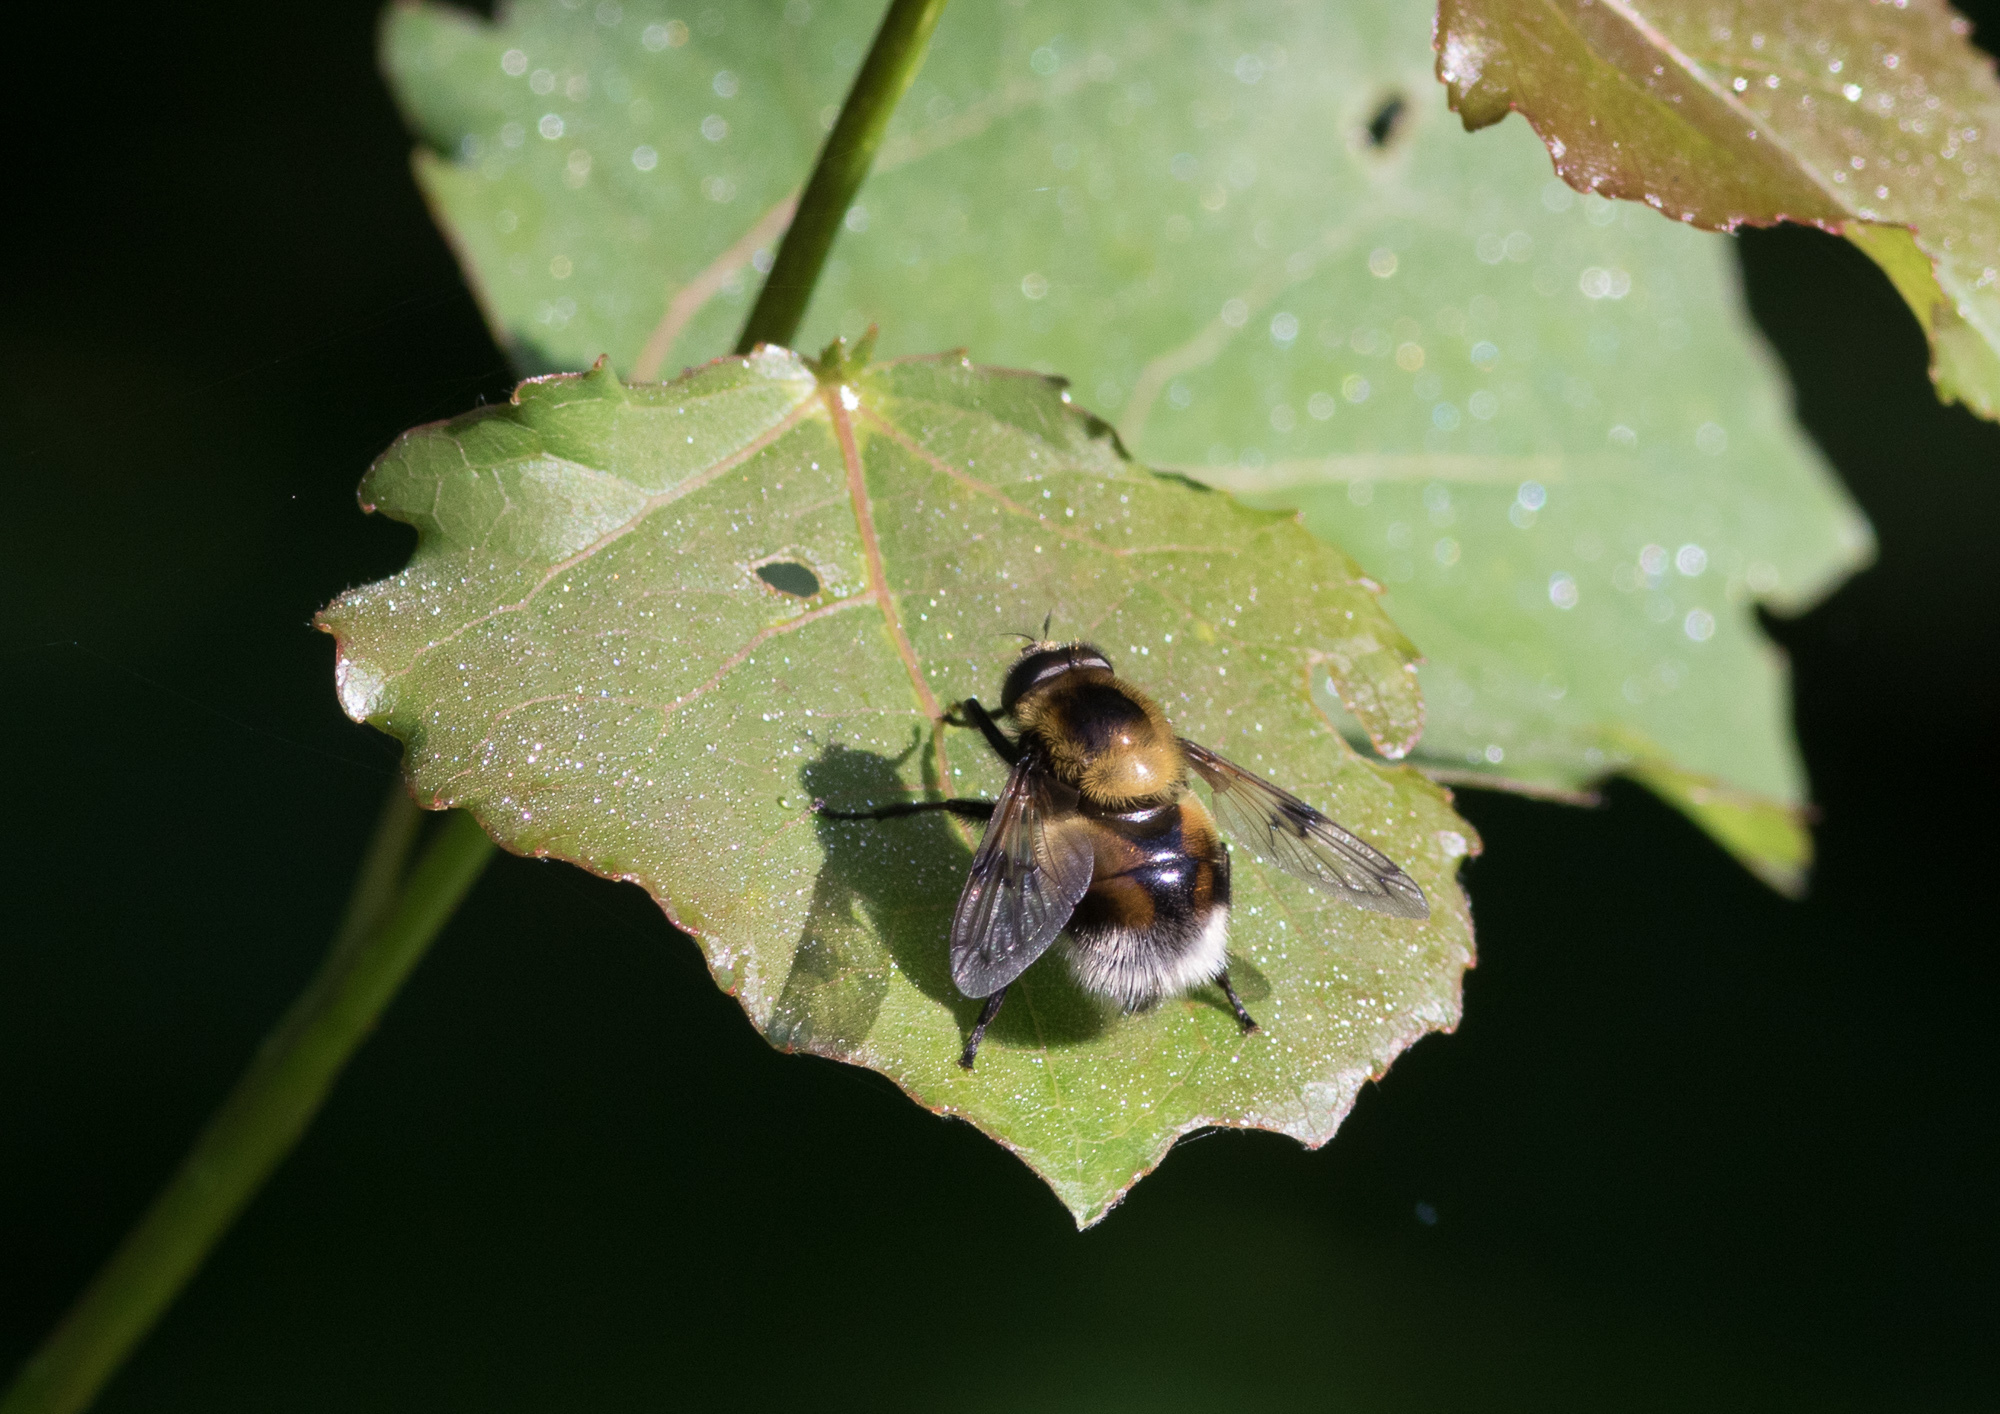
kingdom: Animalia
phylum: Arthropoda
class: Insecta
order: Diptera
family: Syrphidae
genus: Volucella
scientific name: Volucella bombylans
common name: Bumble bee hover fly
